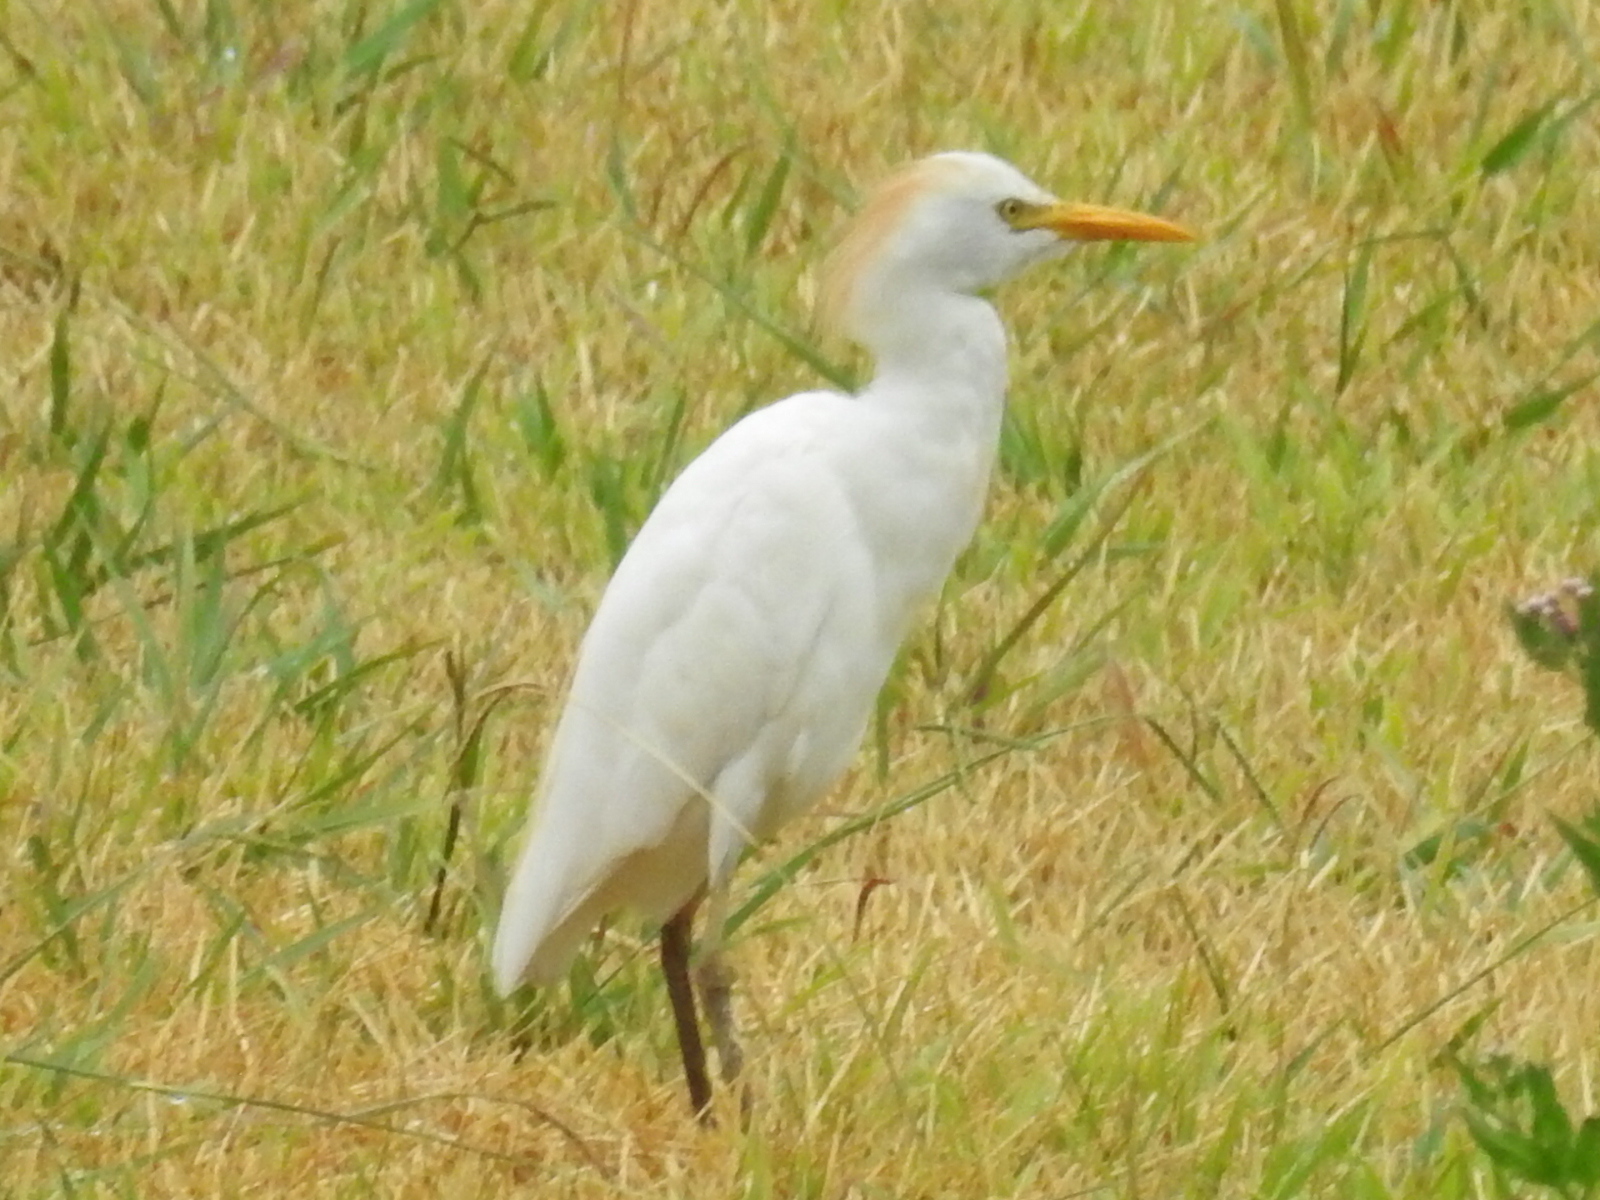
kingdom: Animalia
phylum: Chordata
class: Aves
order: Pelecaniformes
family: Ardeidae
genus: Bubulcus
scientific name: Bubulcus ibis
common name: Cattle egret
